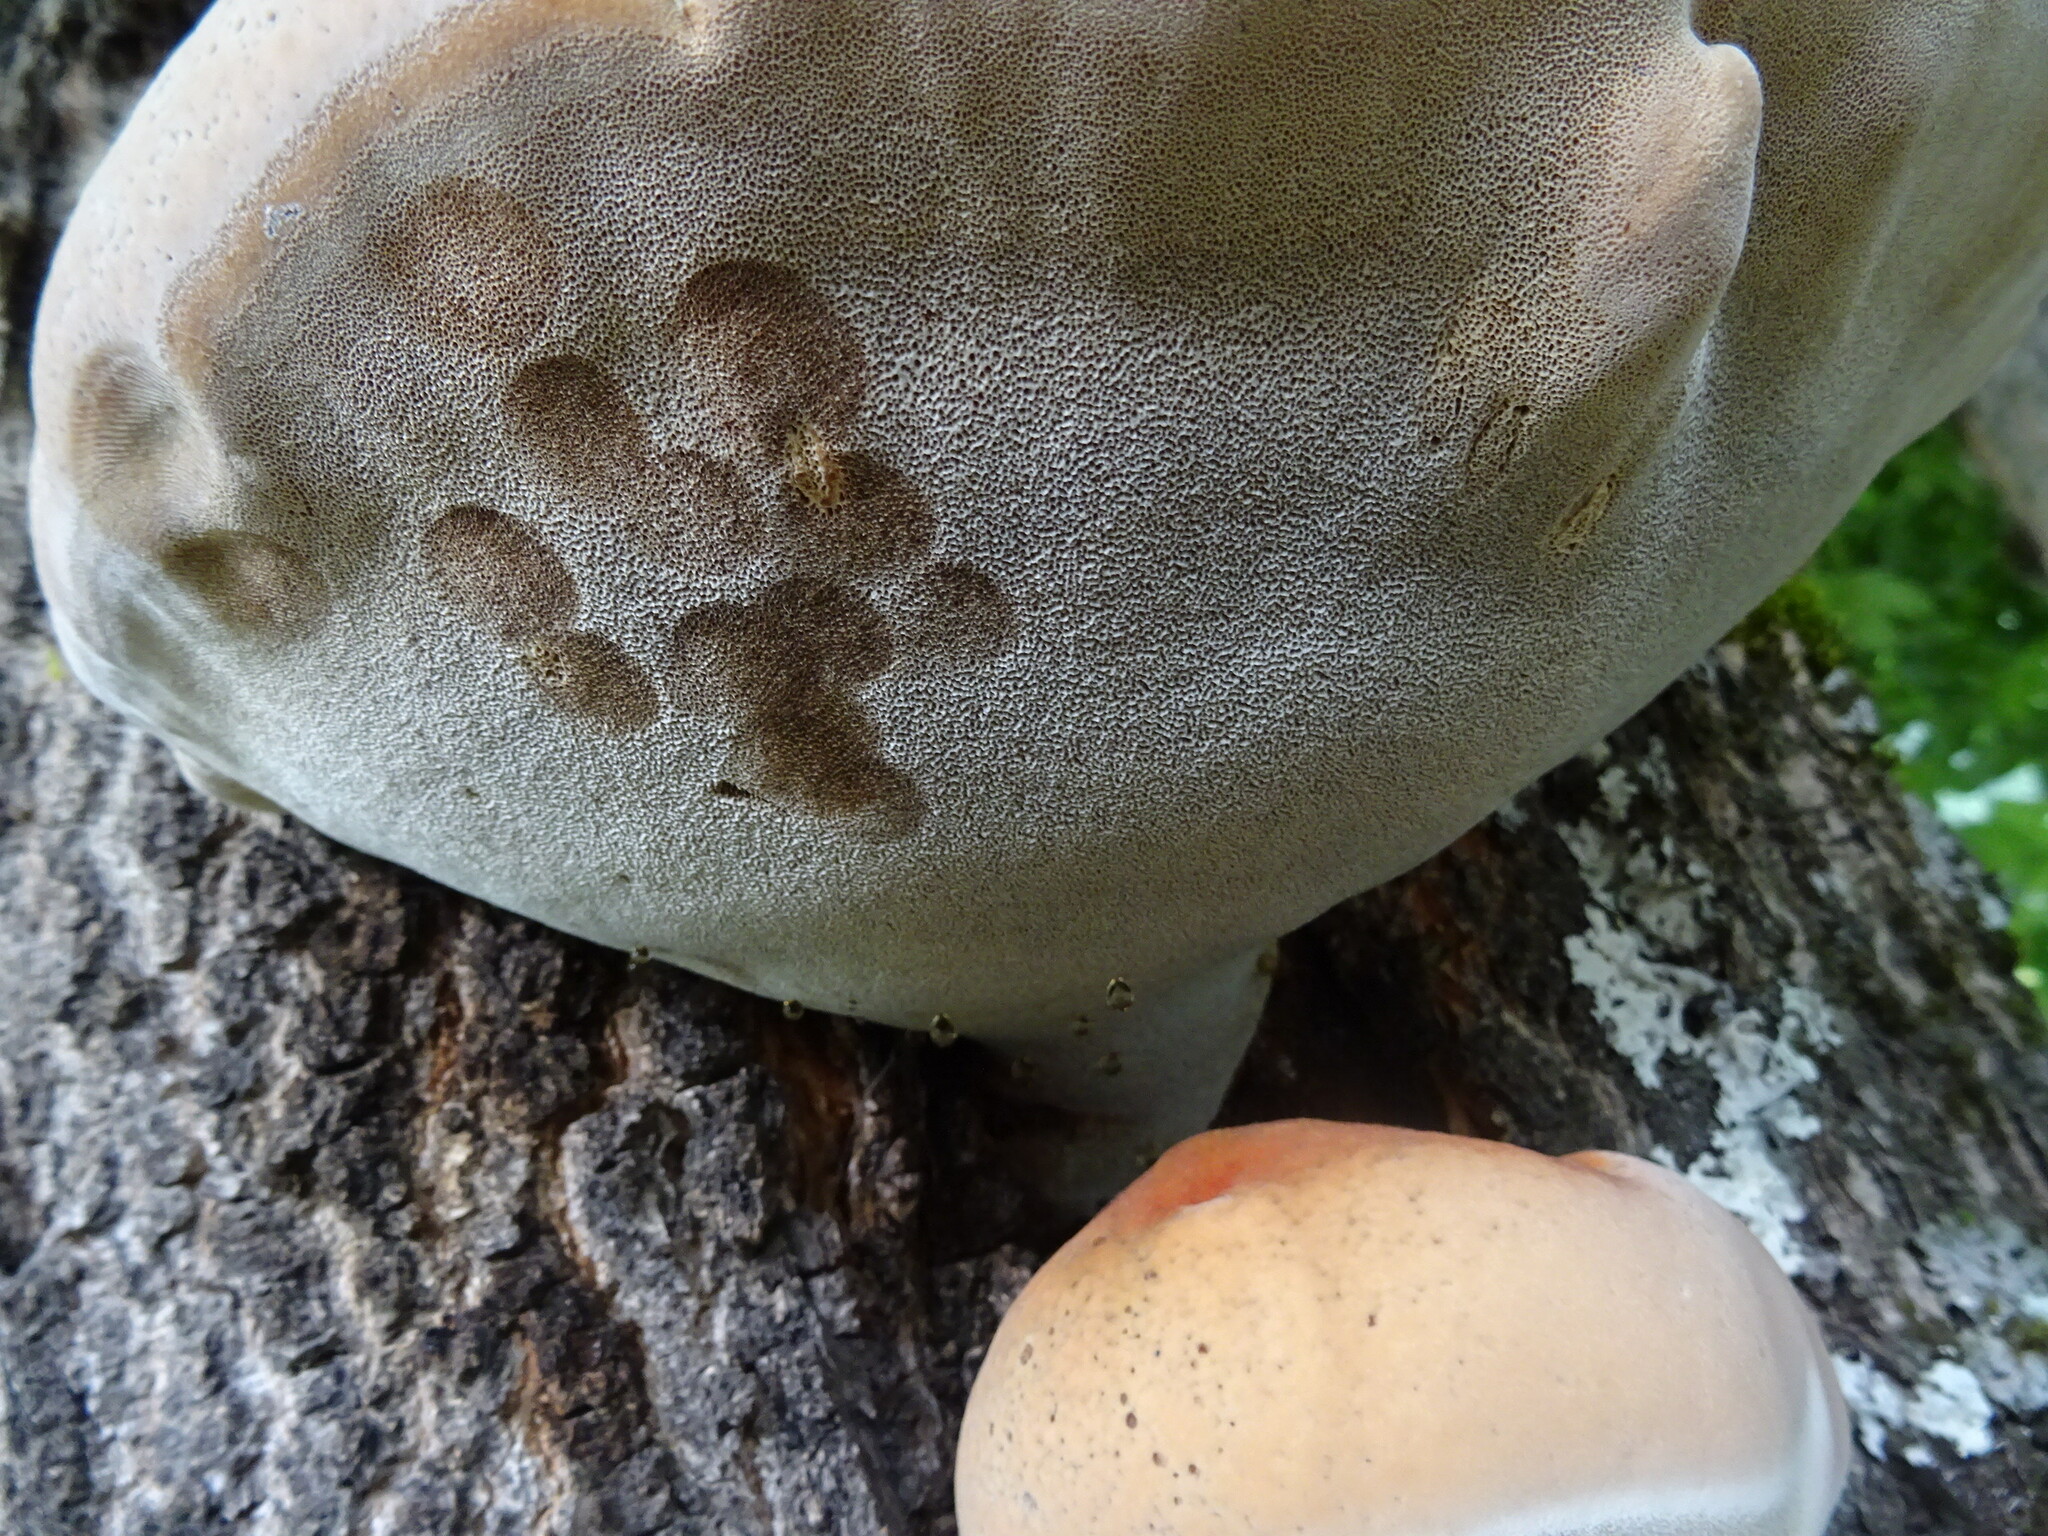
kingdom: Fungi
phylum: Basidiomycota
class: Agaricomycetes
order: Hymenochaetales
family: Hymenochaetaceae
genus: Inonotus
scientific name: Inonotus hispidus
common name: Shaggy bracket
